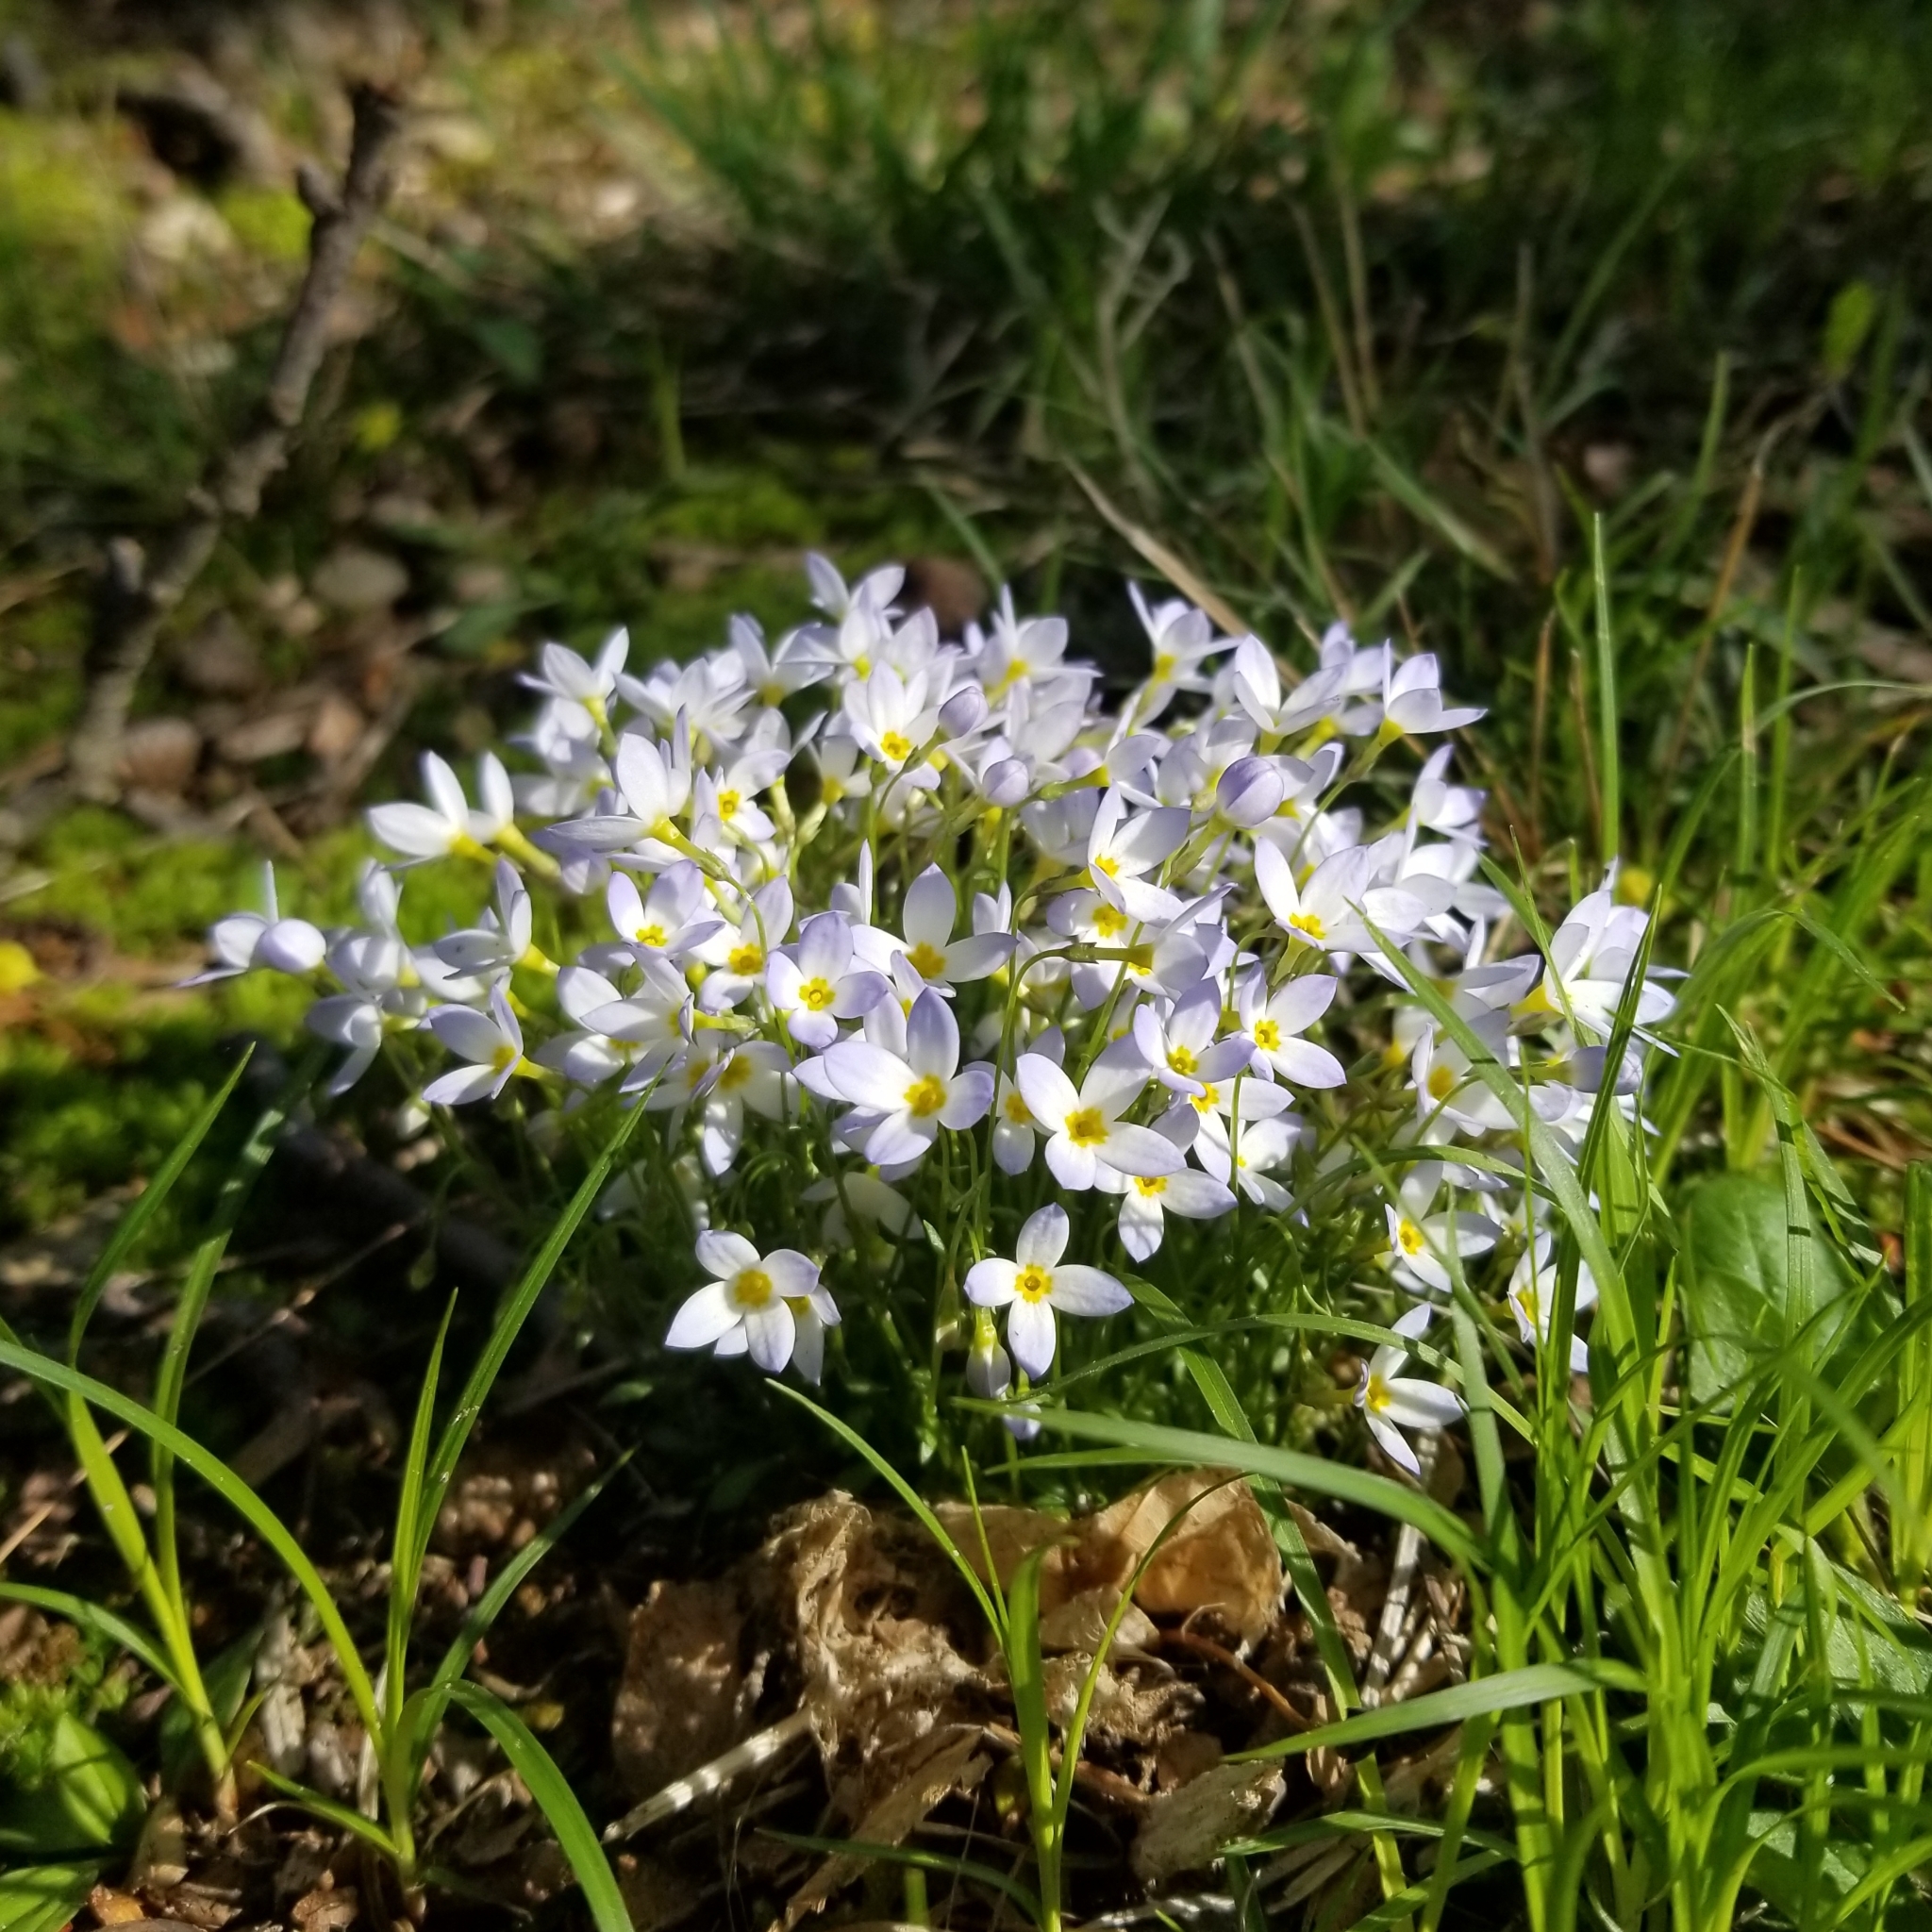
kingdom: Plantae
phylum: Tracheophyta
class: Magnoliopsida
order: Gentianales
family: Rubiaceae
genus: Houstonia
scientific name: Houstonia caerulea
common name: Bluets
